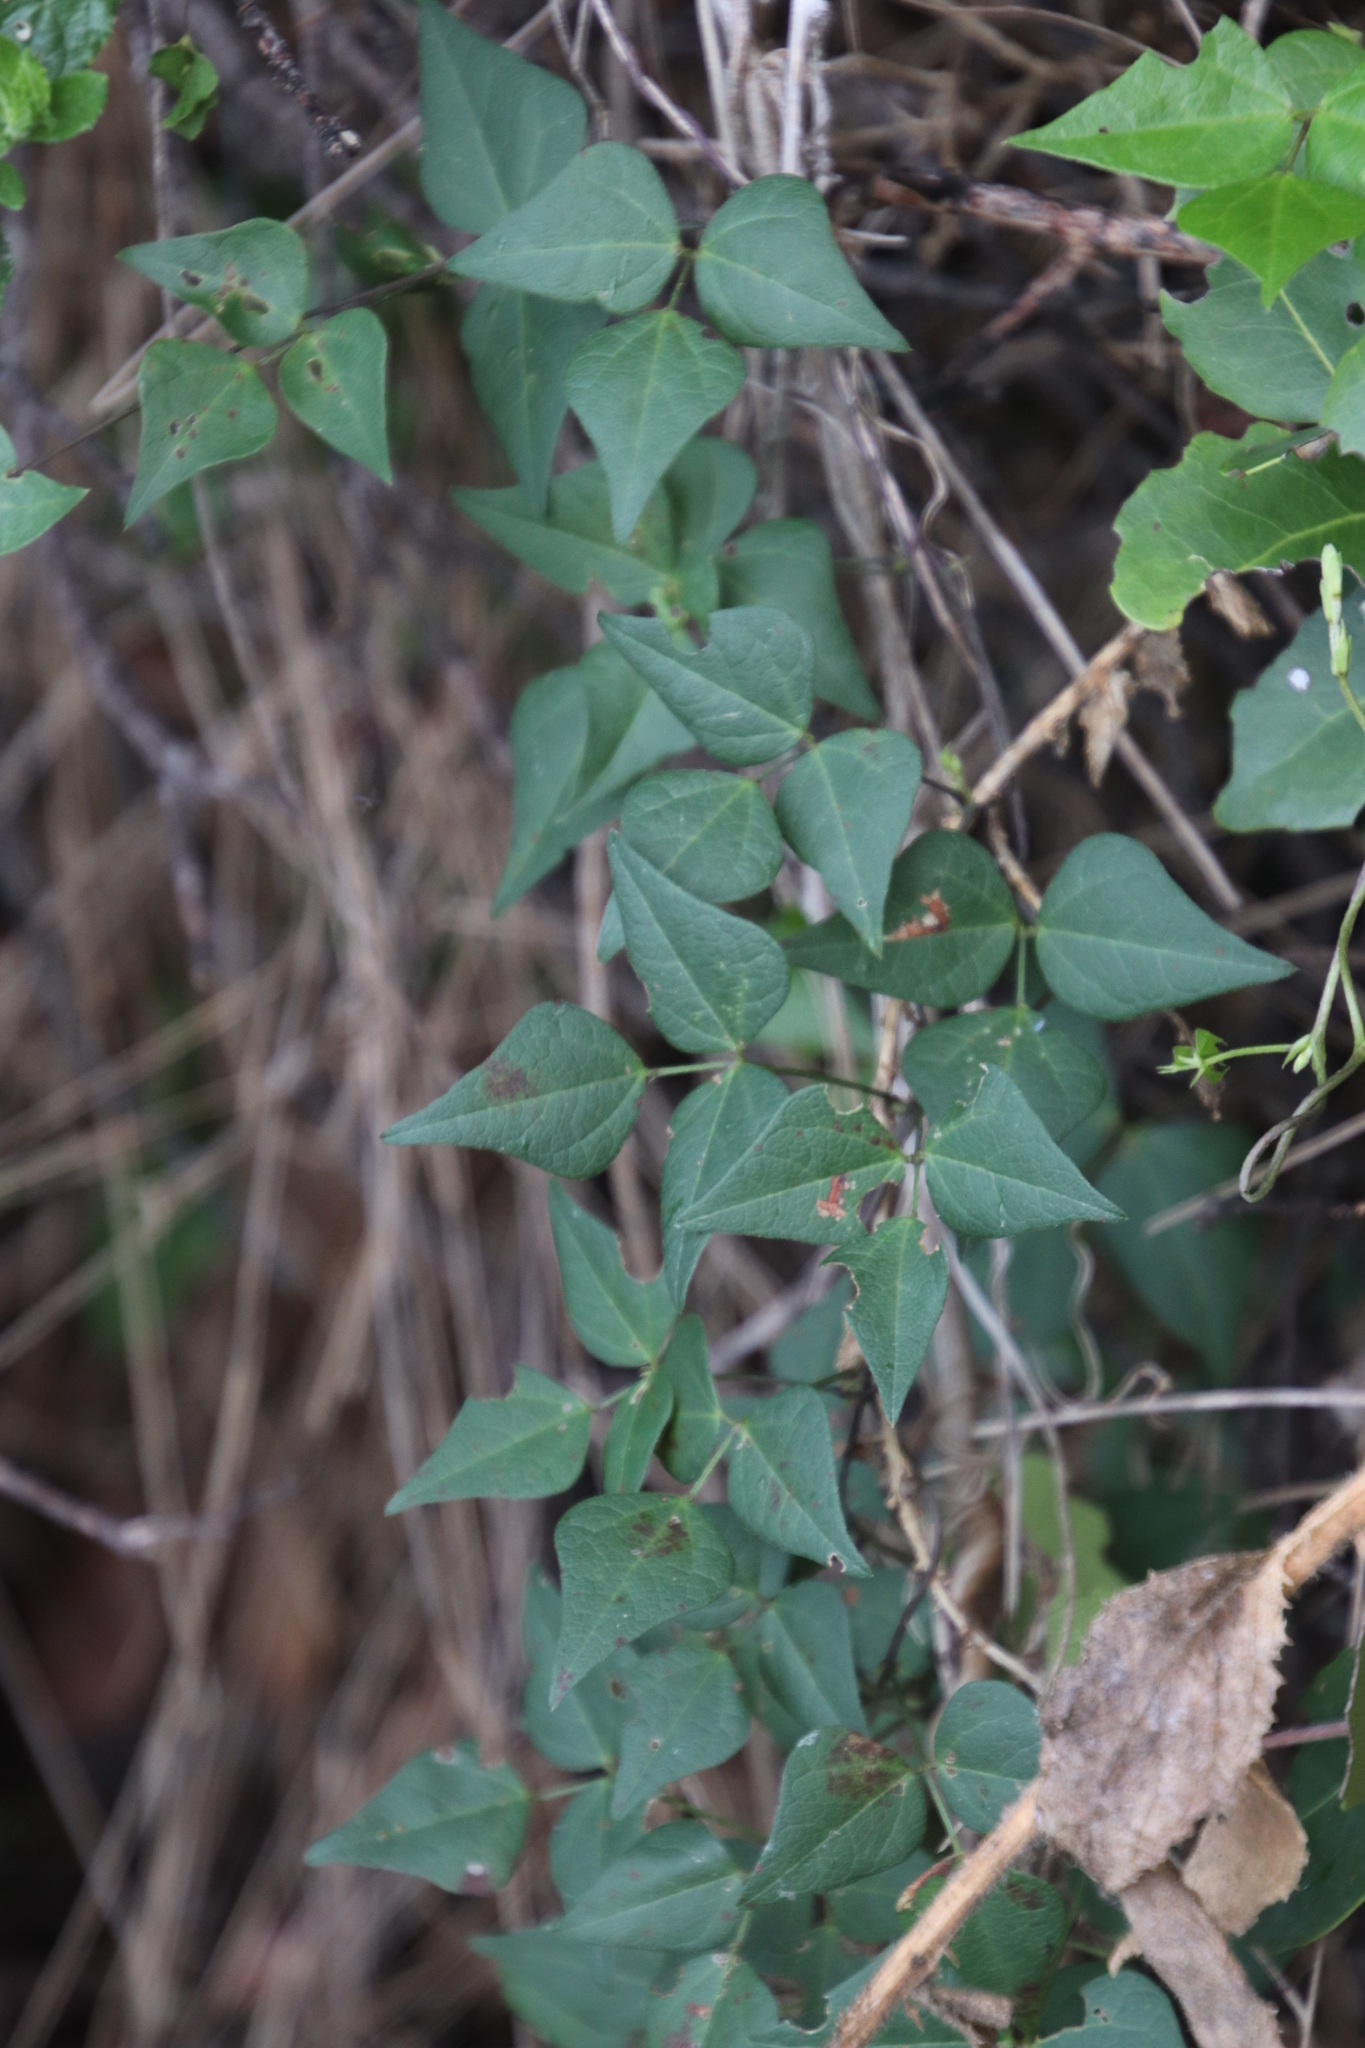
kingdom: Plantae
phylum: Tracheophyta
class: Magnoliopsida
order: Fabales
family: Fabaceae
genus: Dipogon
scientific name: Dipogon lignosus
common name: Okie bean
